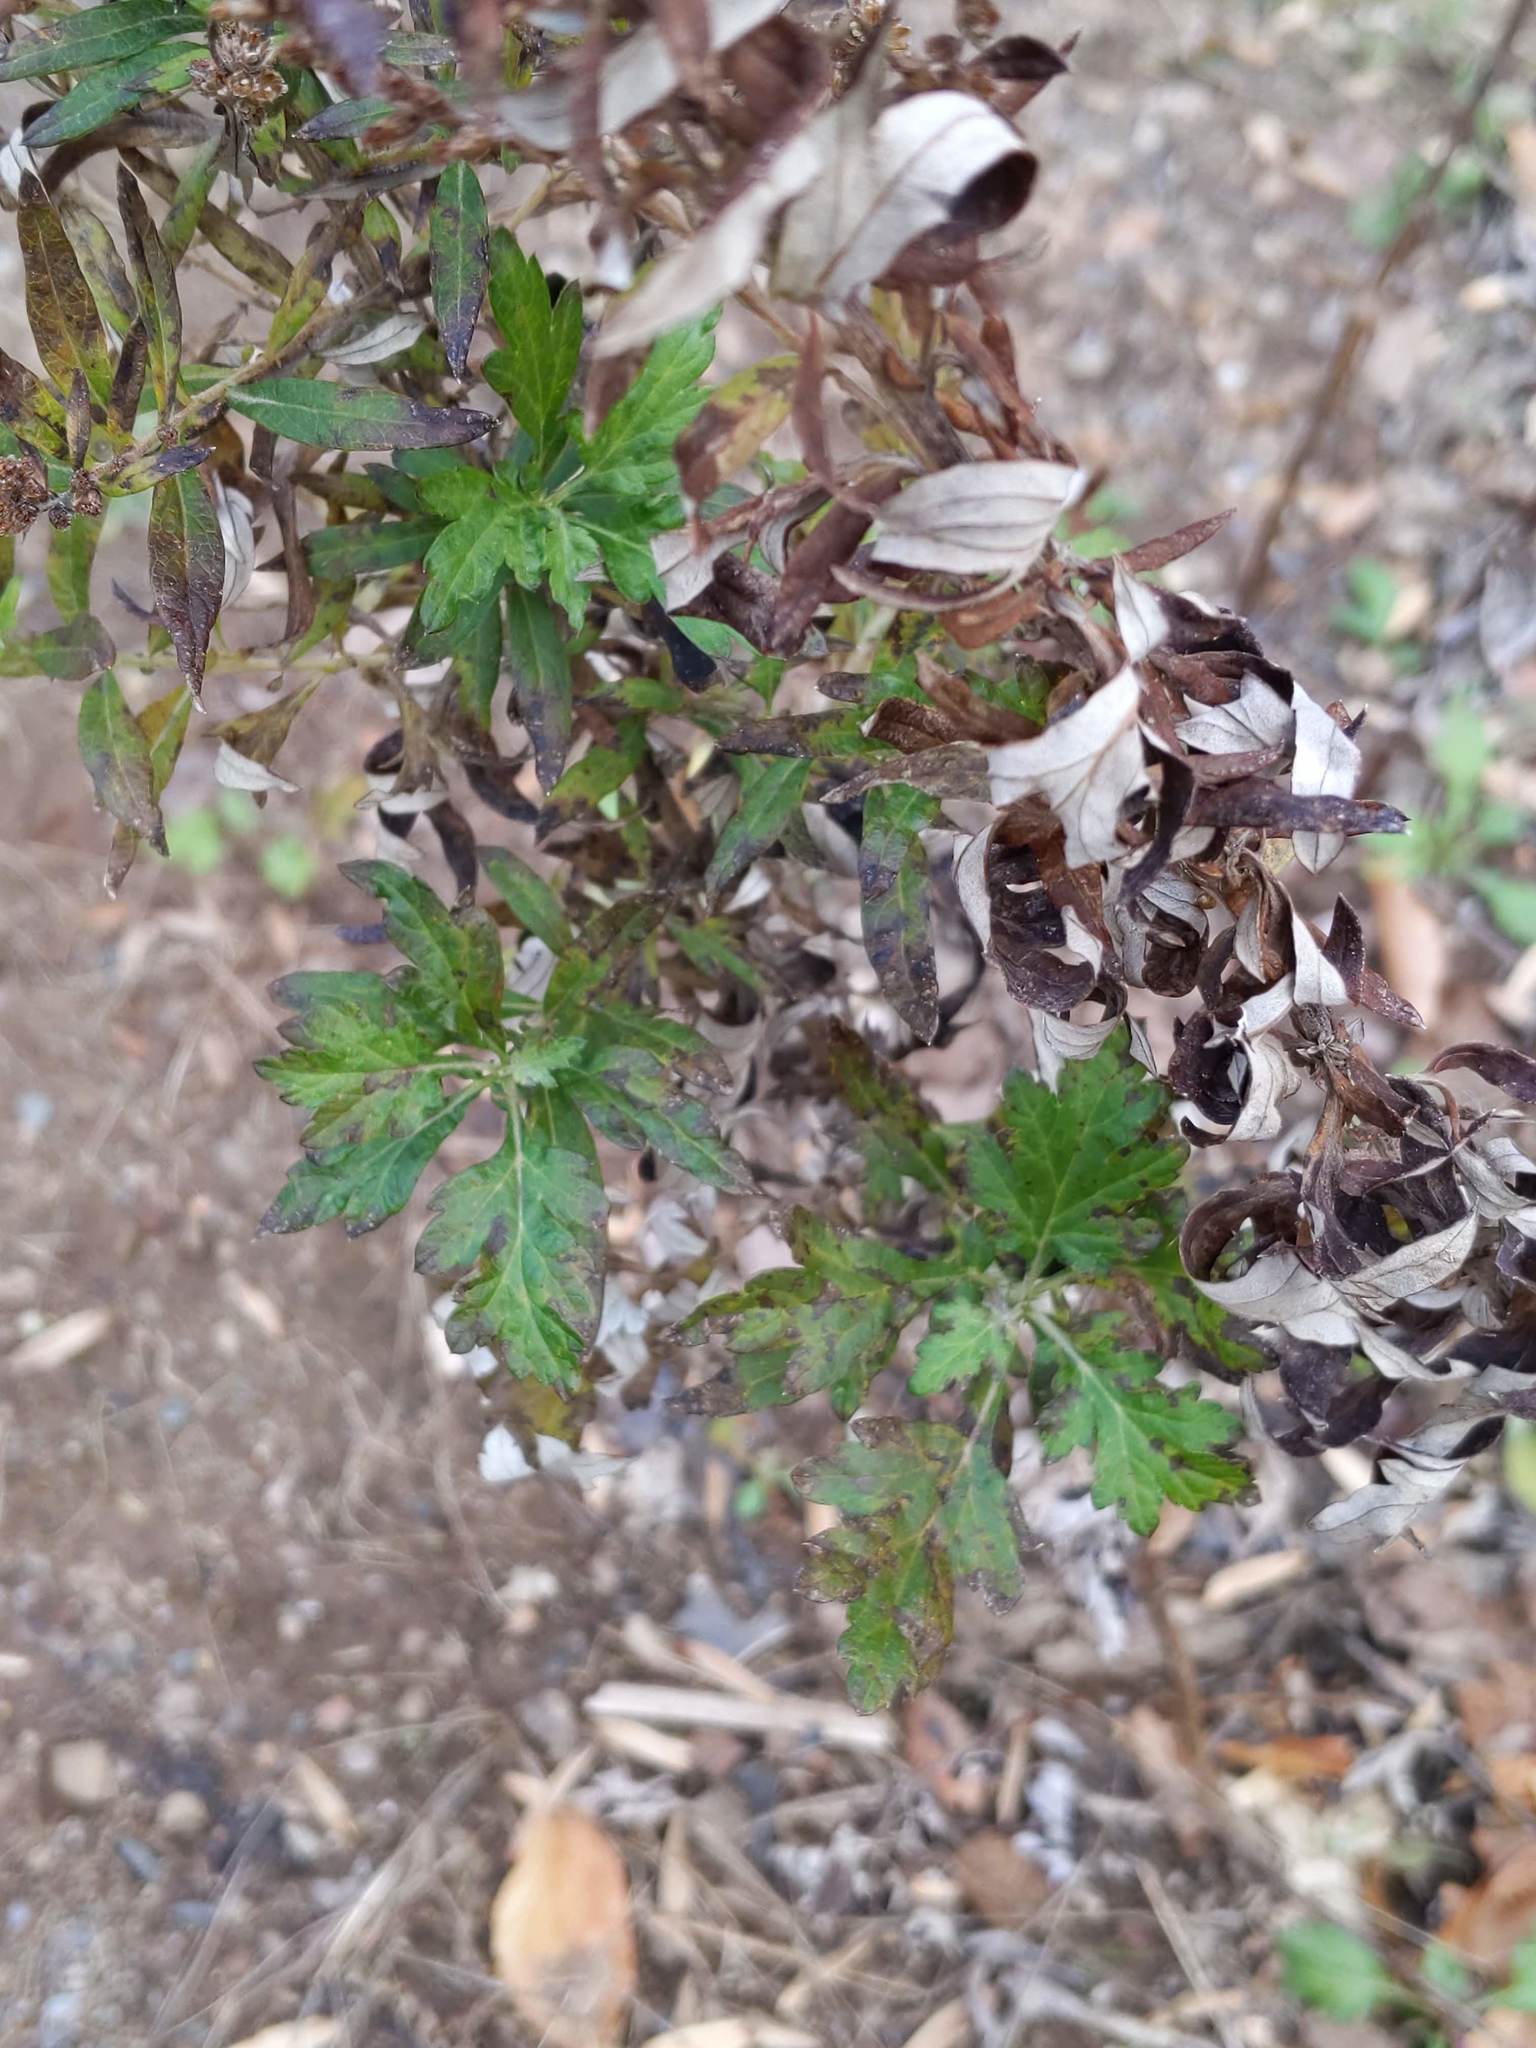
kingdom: Plantae
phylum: Tracheophyta
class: Magnoliopsida
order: Asterales
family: Asteraceae
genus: Artemisia
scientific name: Artemisia vulgaris
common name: Mugwort
